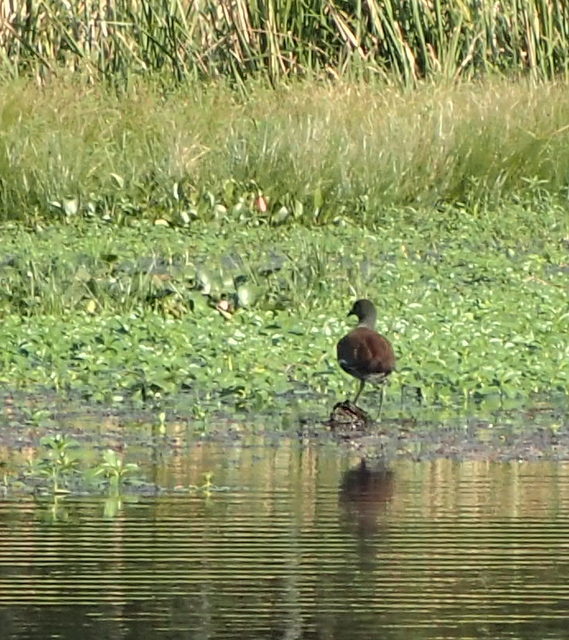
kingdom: Animalia
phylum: Chordata
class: Aves
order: Gruiformes
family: Rallidae
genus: Gallinula
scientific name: Gallinula chloropus
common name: Common moorhen
